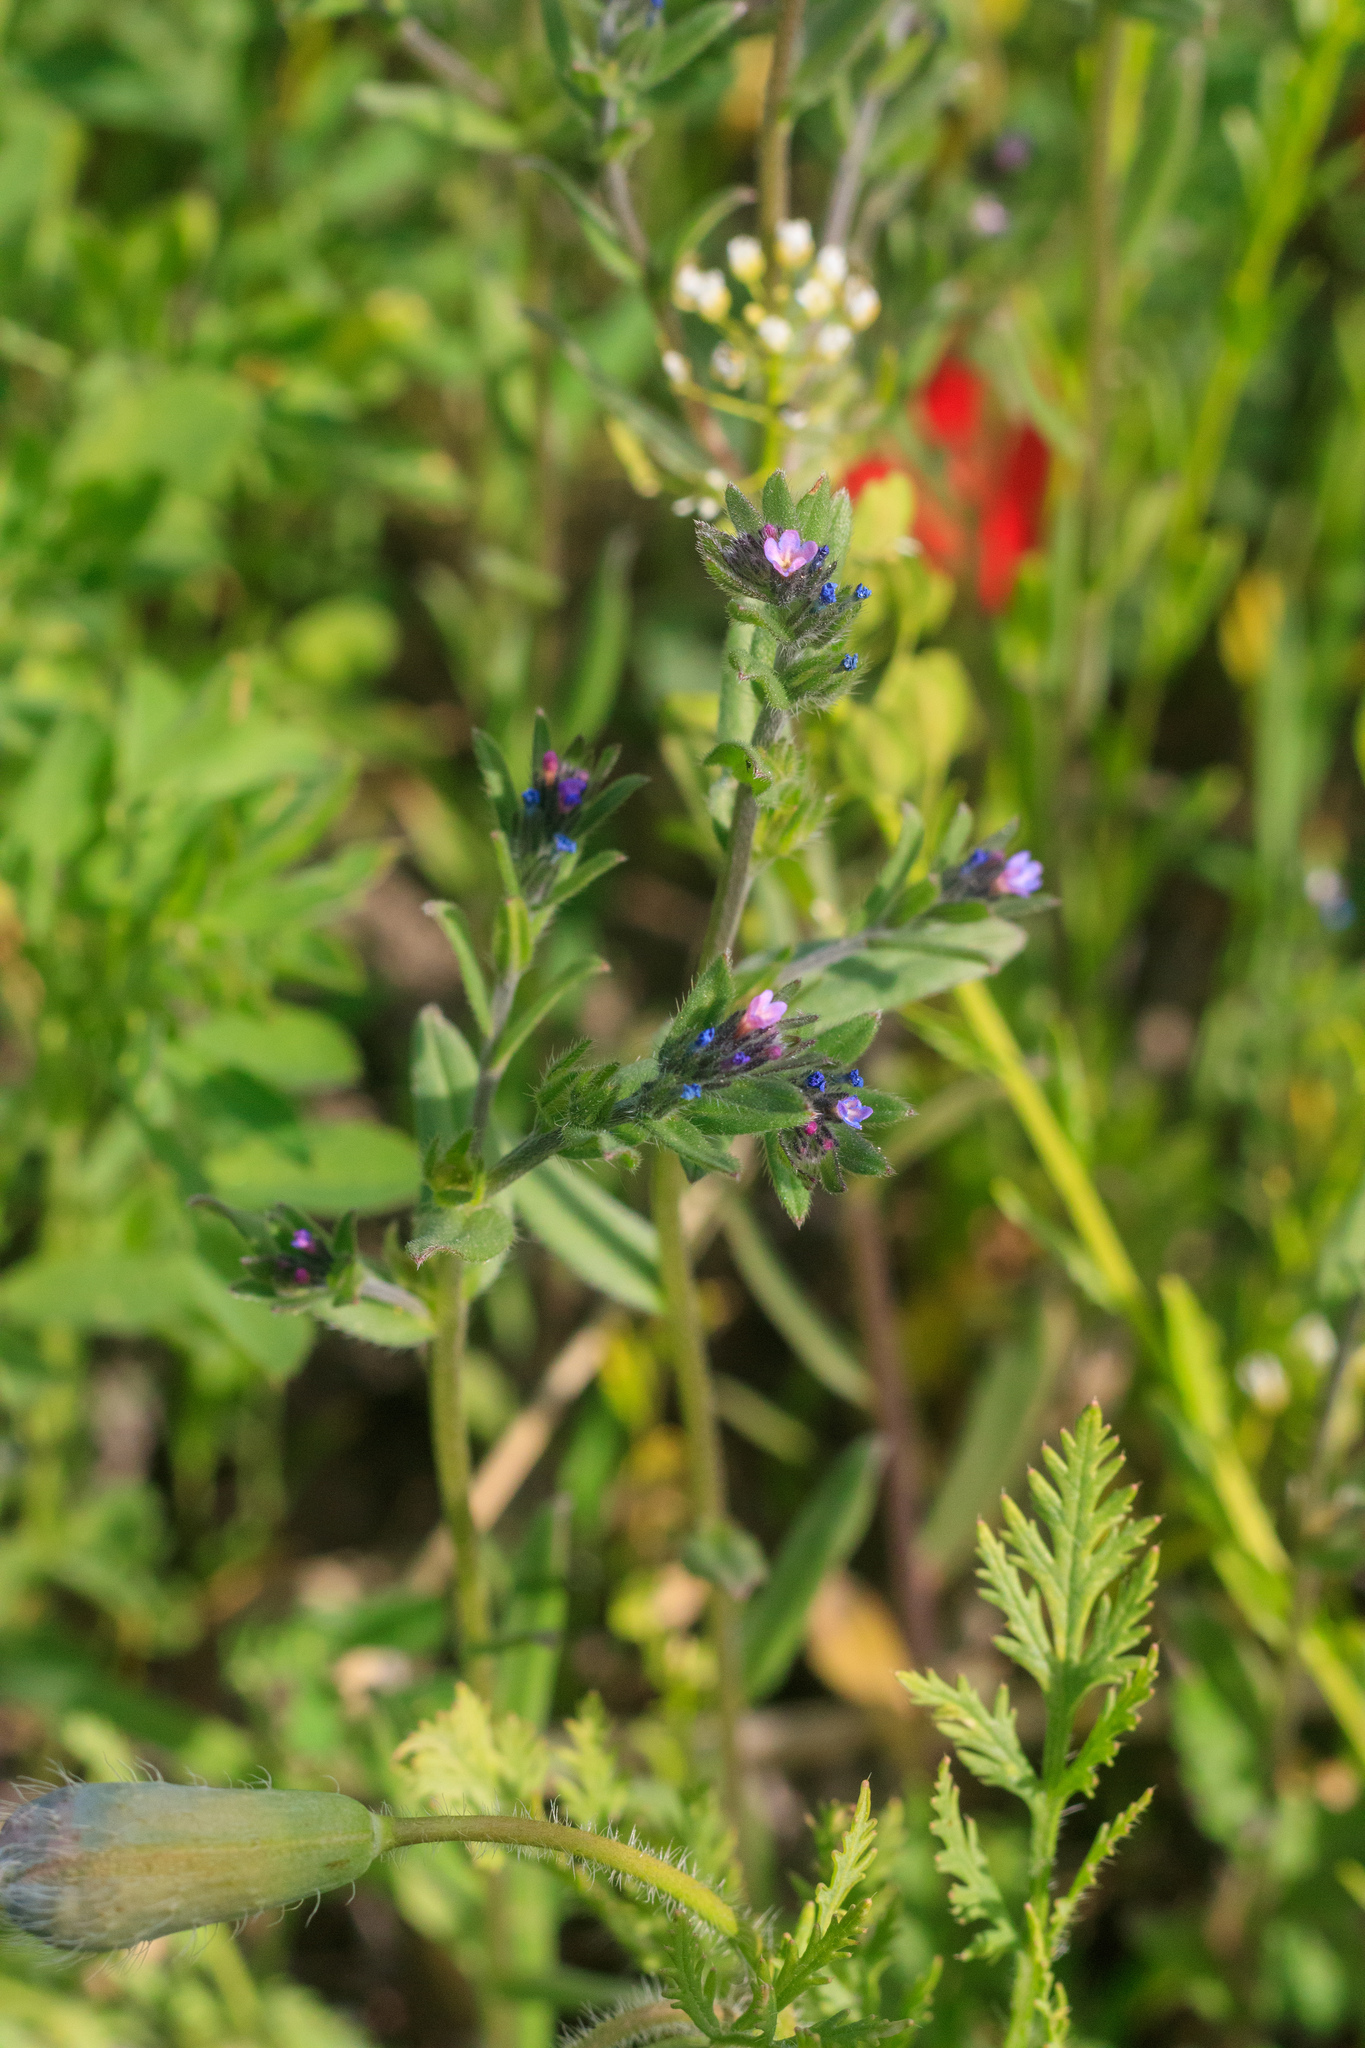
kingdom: Plantae
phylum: Tracheophyta
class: Magnoliopsida
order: Boraginales
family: Boraginaceae
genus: Buglossoides
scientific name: Buglossoides arvensis
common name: Corn gromwell
